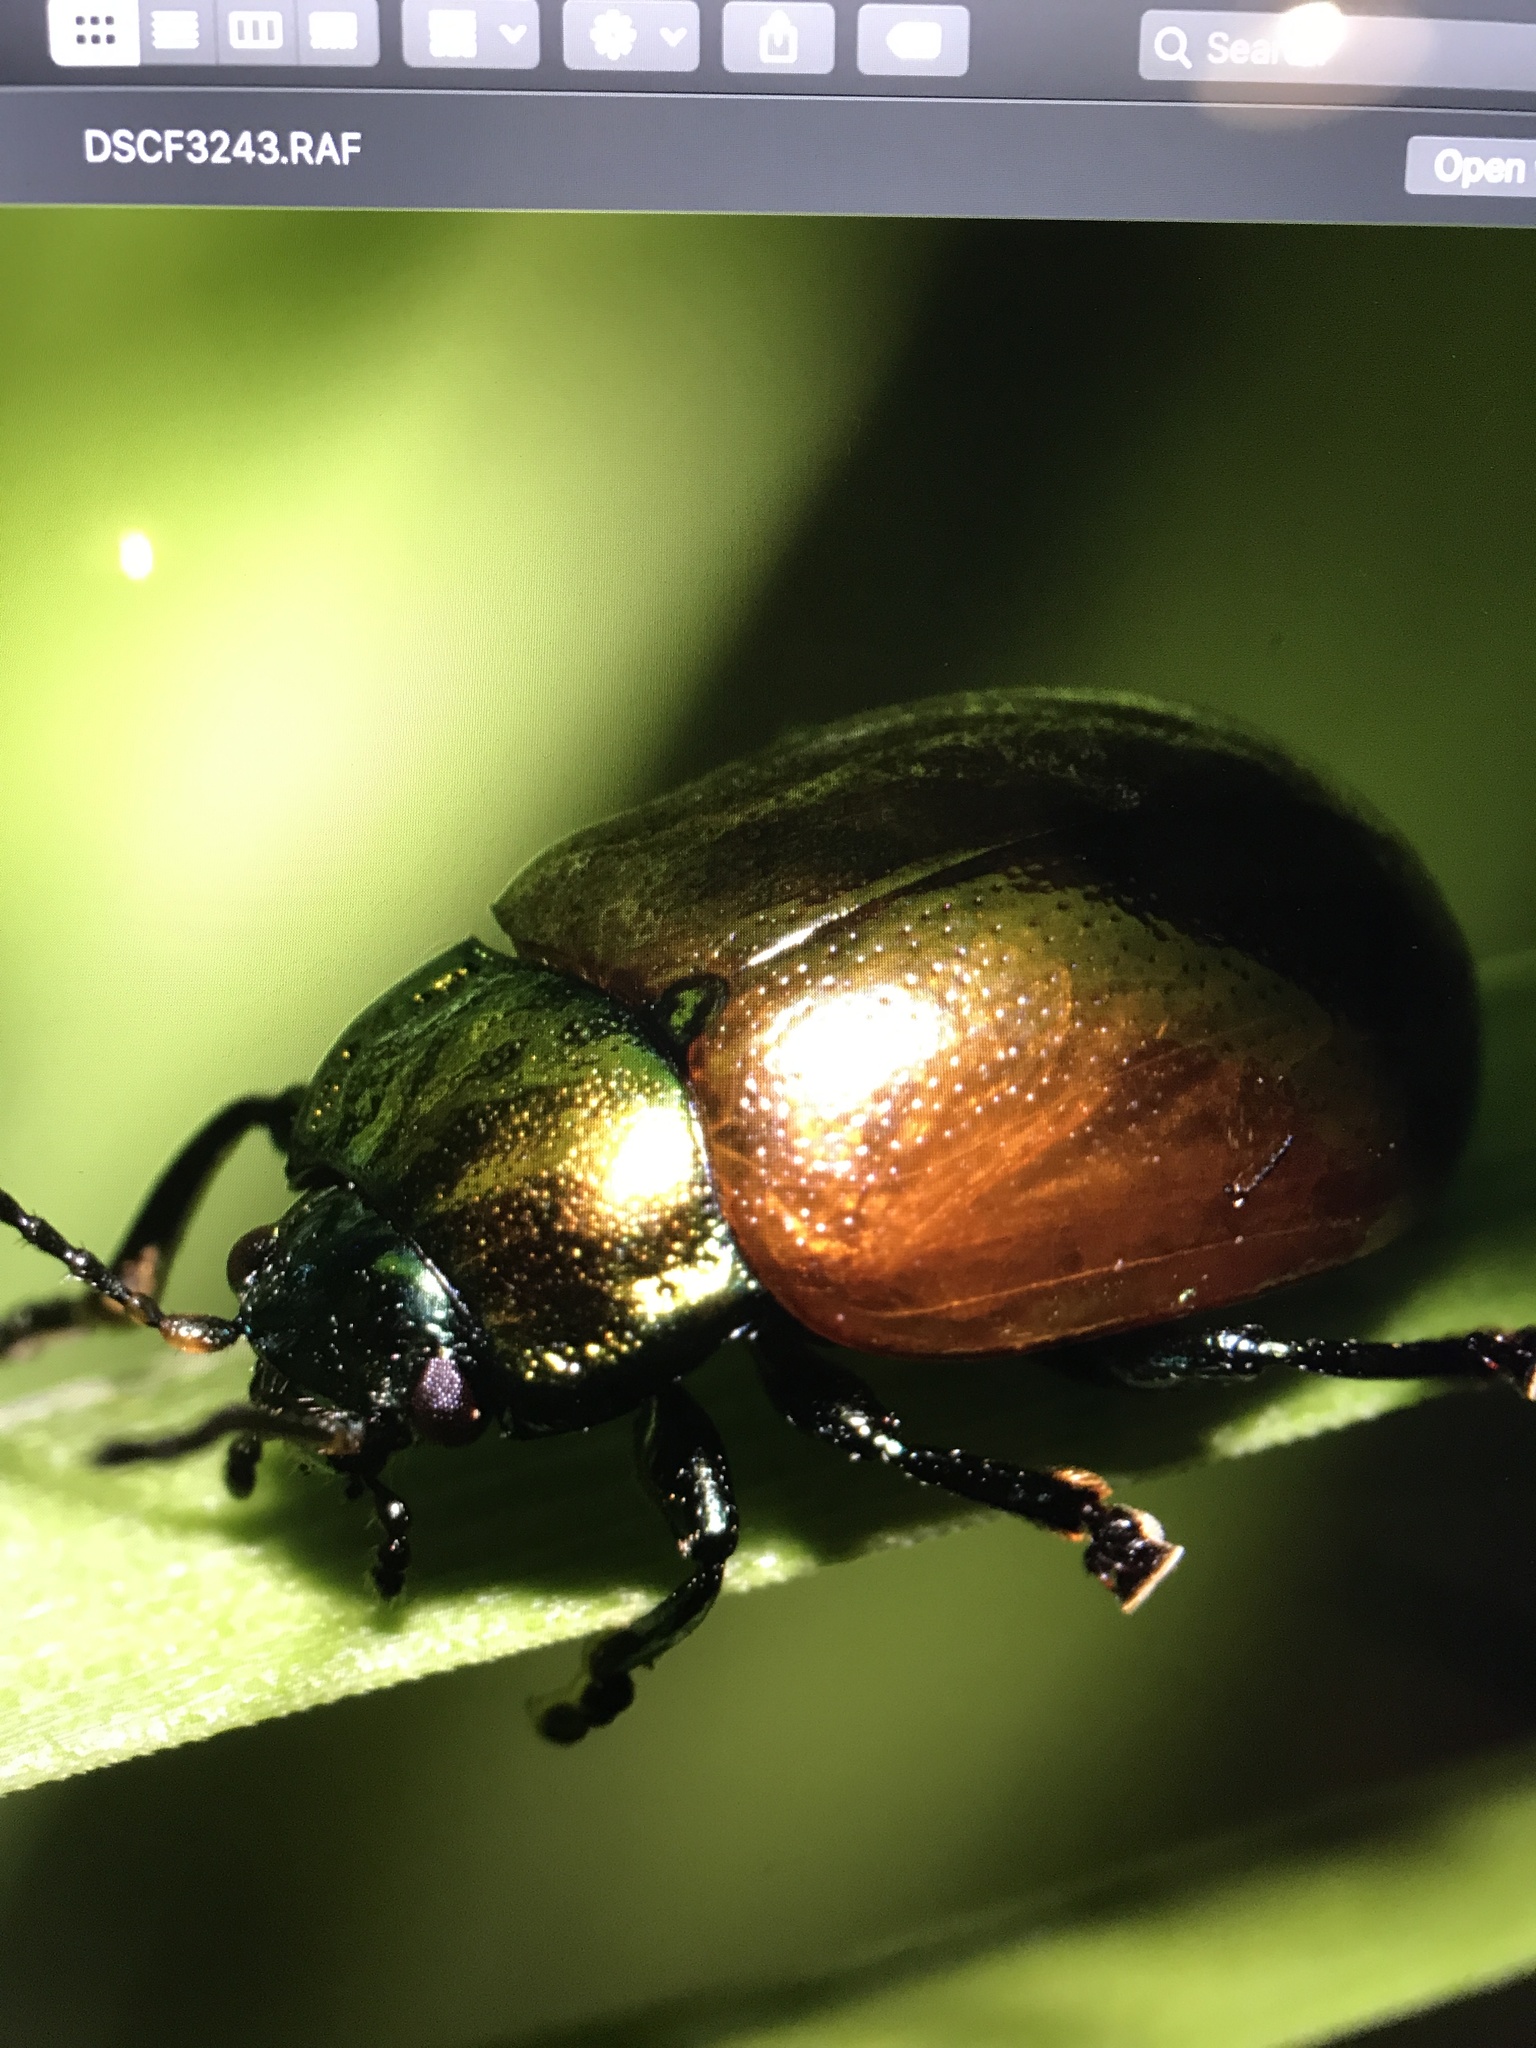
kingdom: Animalia
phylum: Arthropoda
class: Insecta
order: Coleoptera
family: Chrysomelidae
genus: Chrysomela
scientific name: Chrysomela polita
